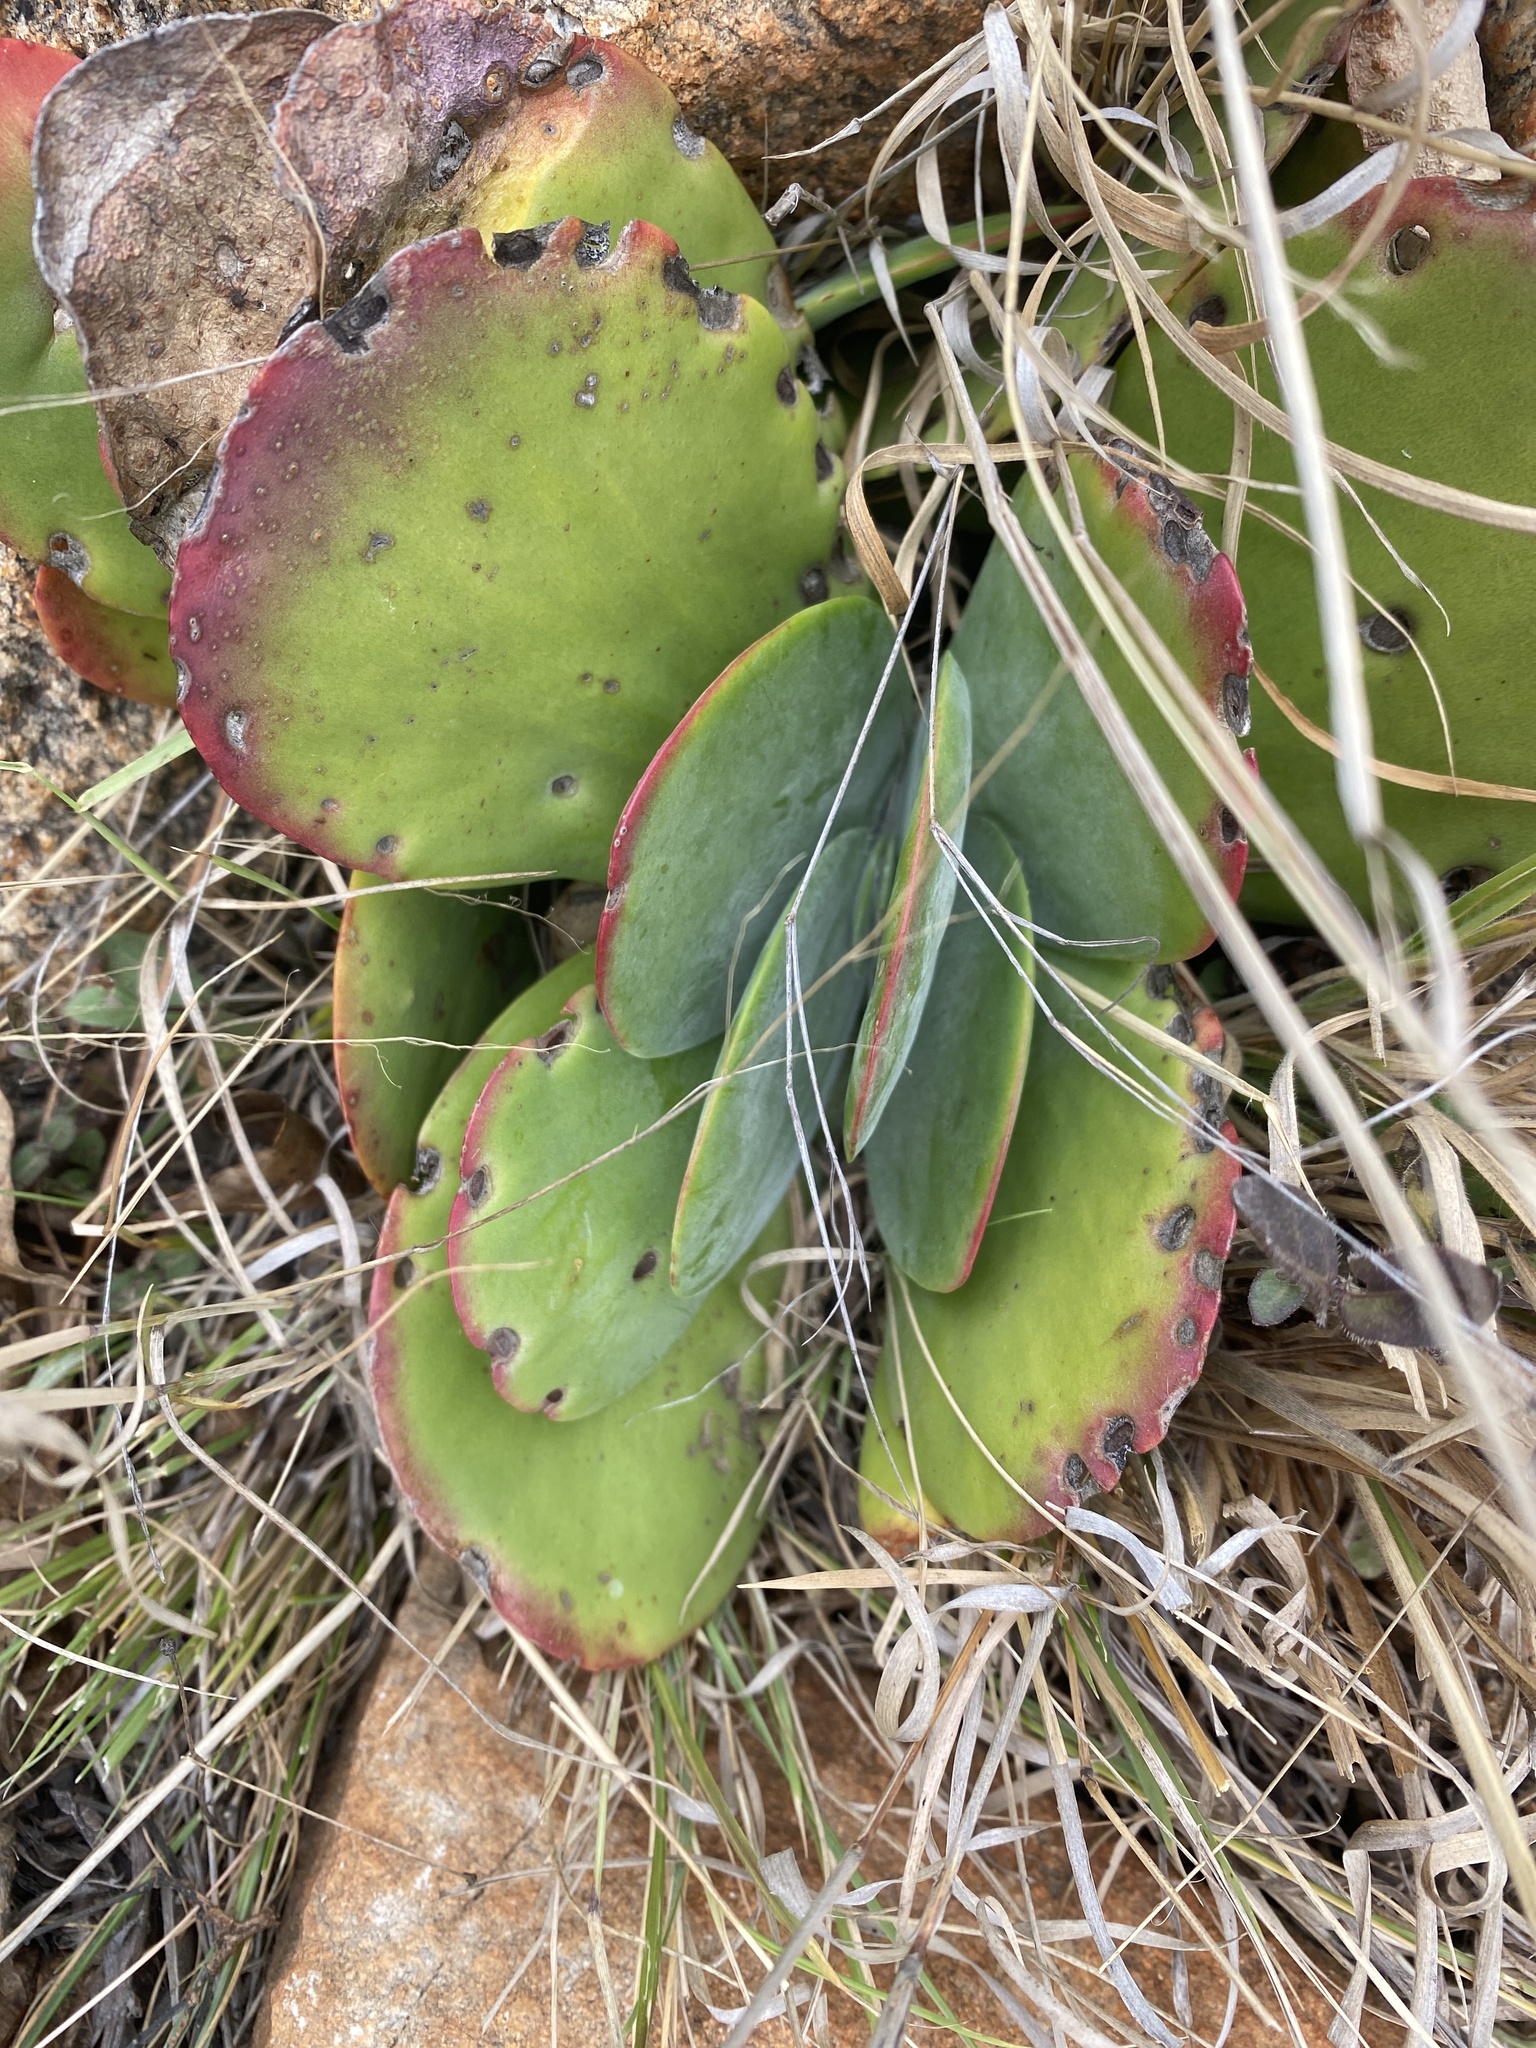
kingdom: Plantae
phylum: Tracheophyta
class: Magnoliopsida
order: Saxifragales
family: Crassulaceae
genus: Kalanchoe
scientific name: Kalanchoe thyrsiflora
